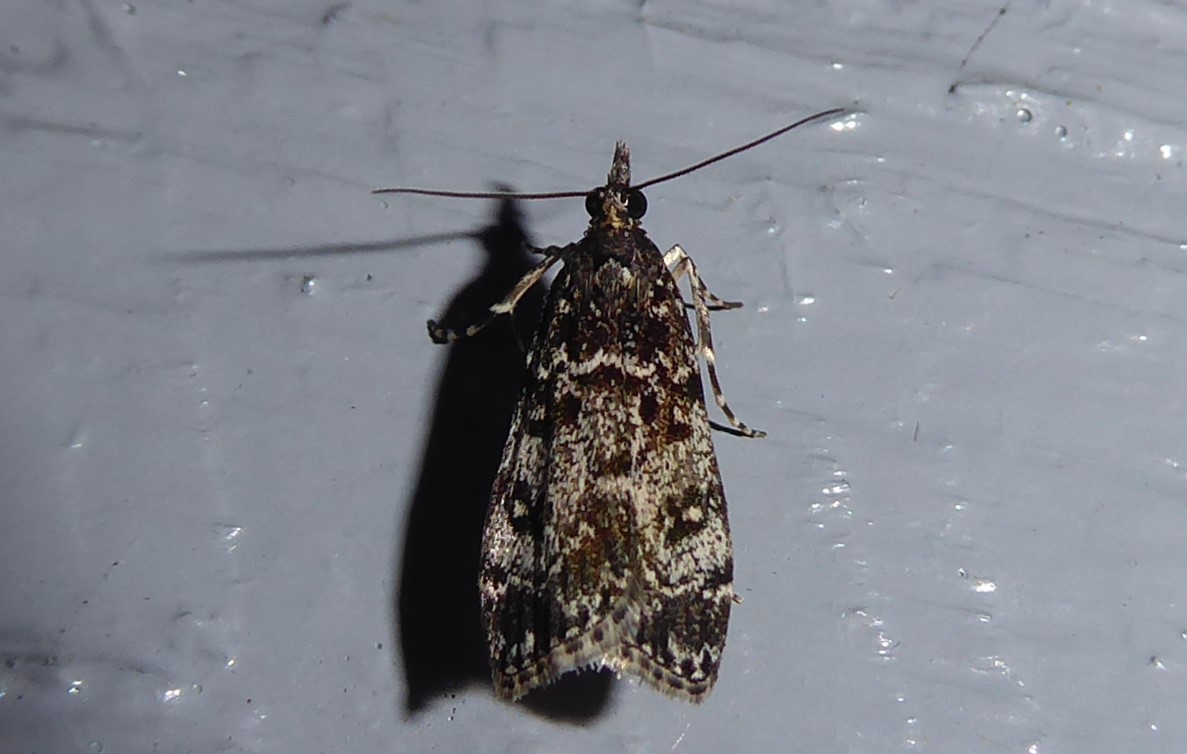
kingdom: Animalia
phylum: Arthropoda
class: Insecta
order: Lepidoptera
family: Crambidae
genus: Eudonia
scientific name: Eudonia philerga
